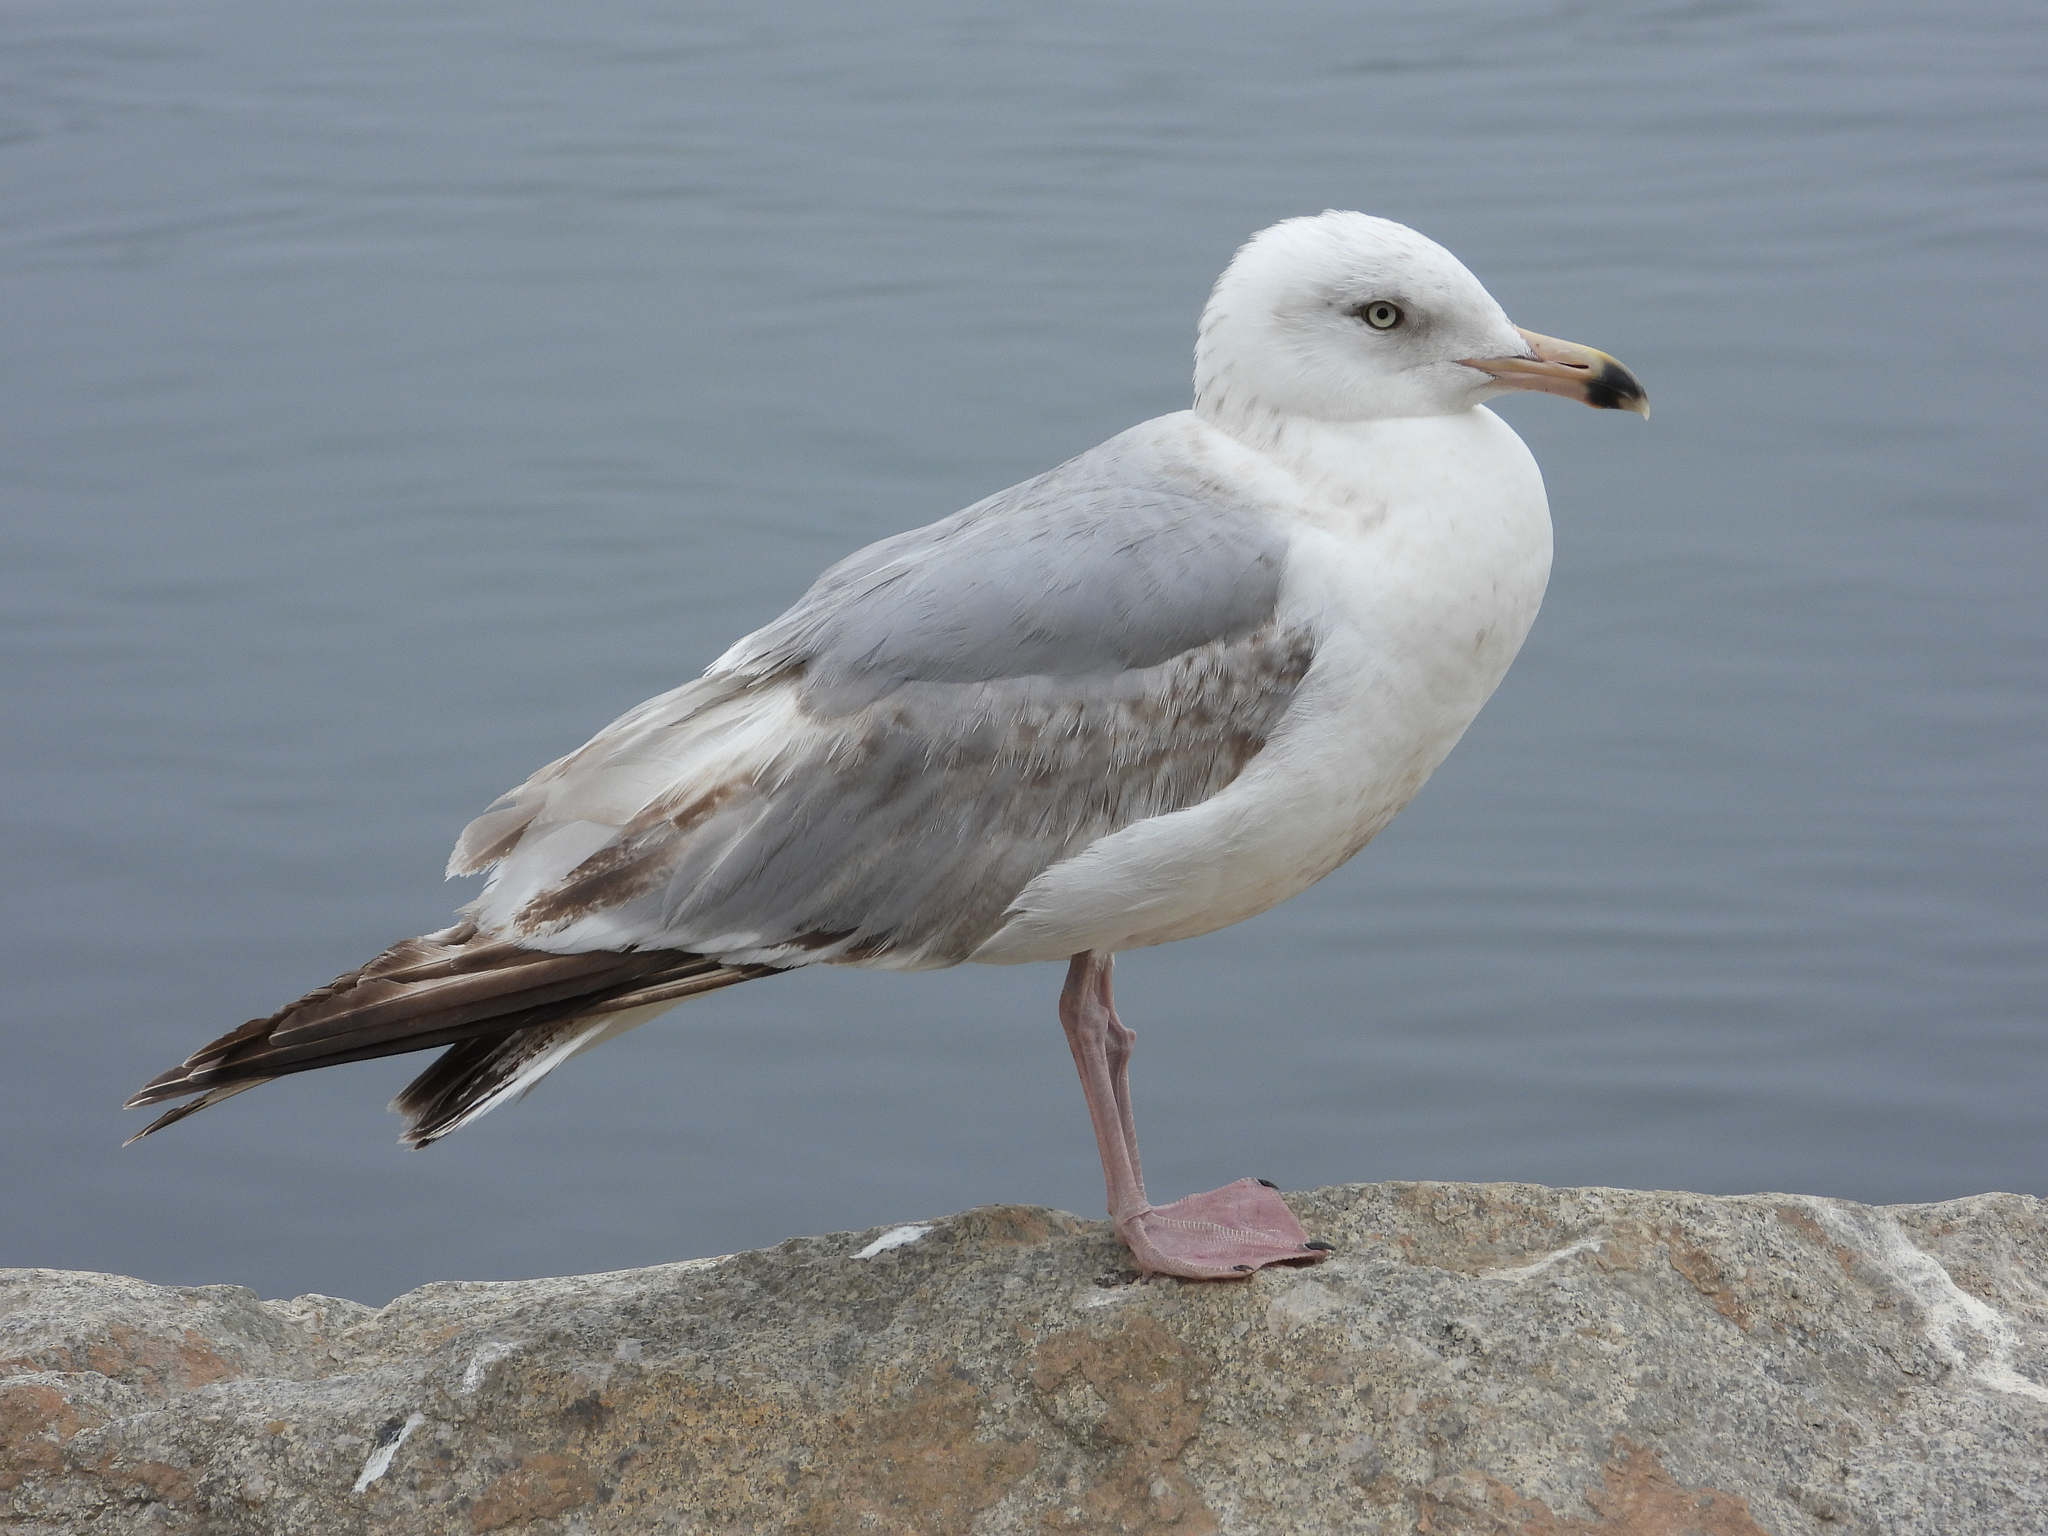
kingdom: Animalia
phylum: Chordata
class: Aves
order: Charadriiformes
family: Laridae
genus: Larus
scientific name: Larus argentatus
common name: Herring gull
